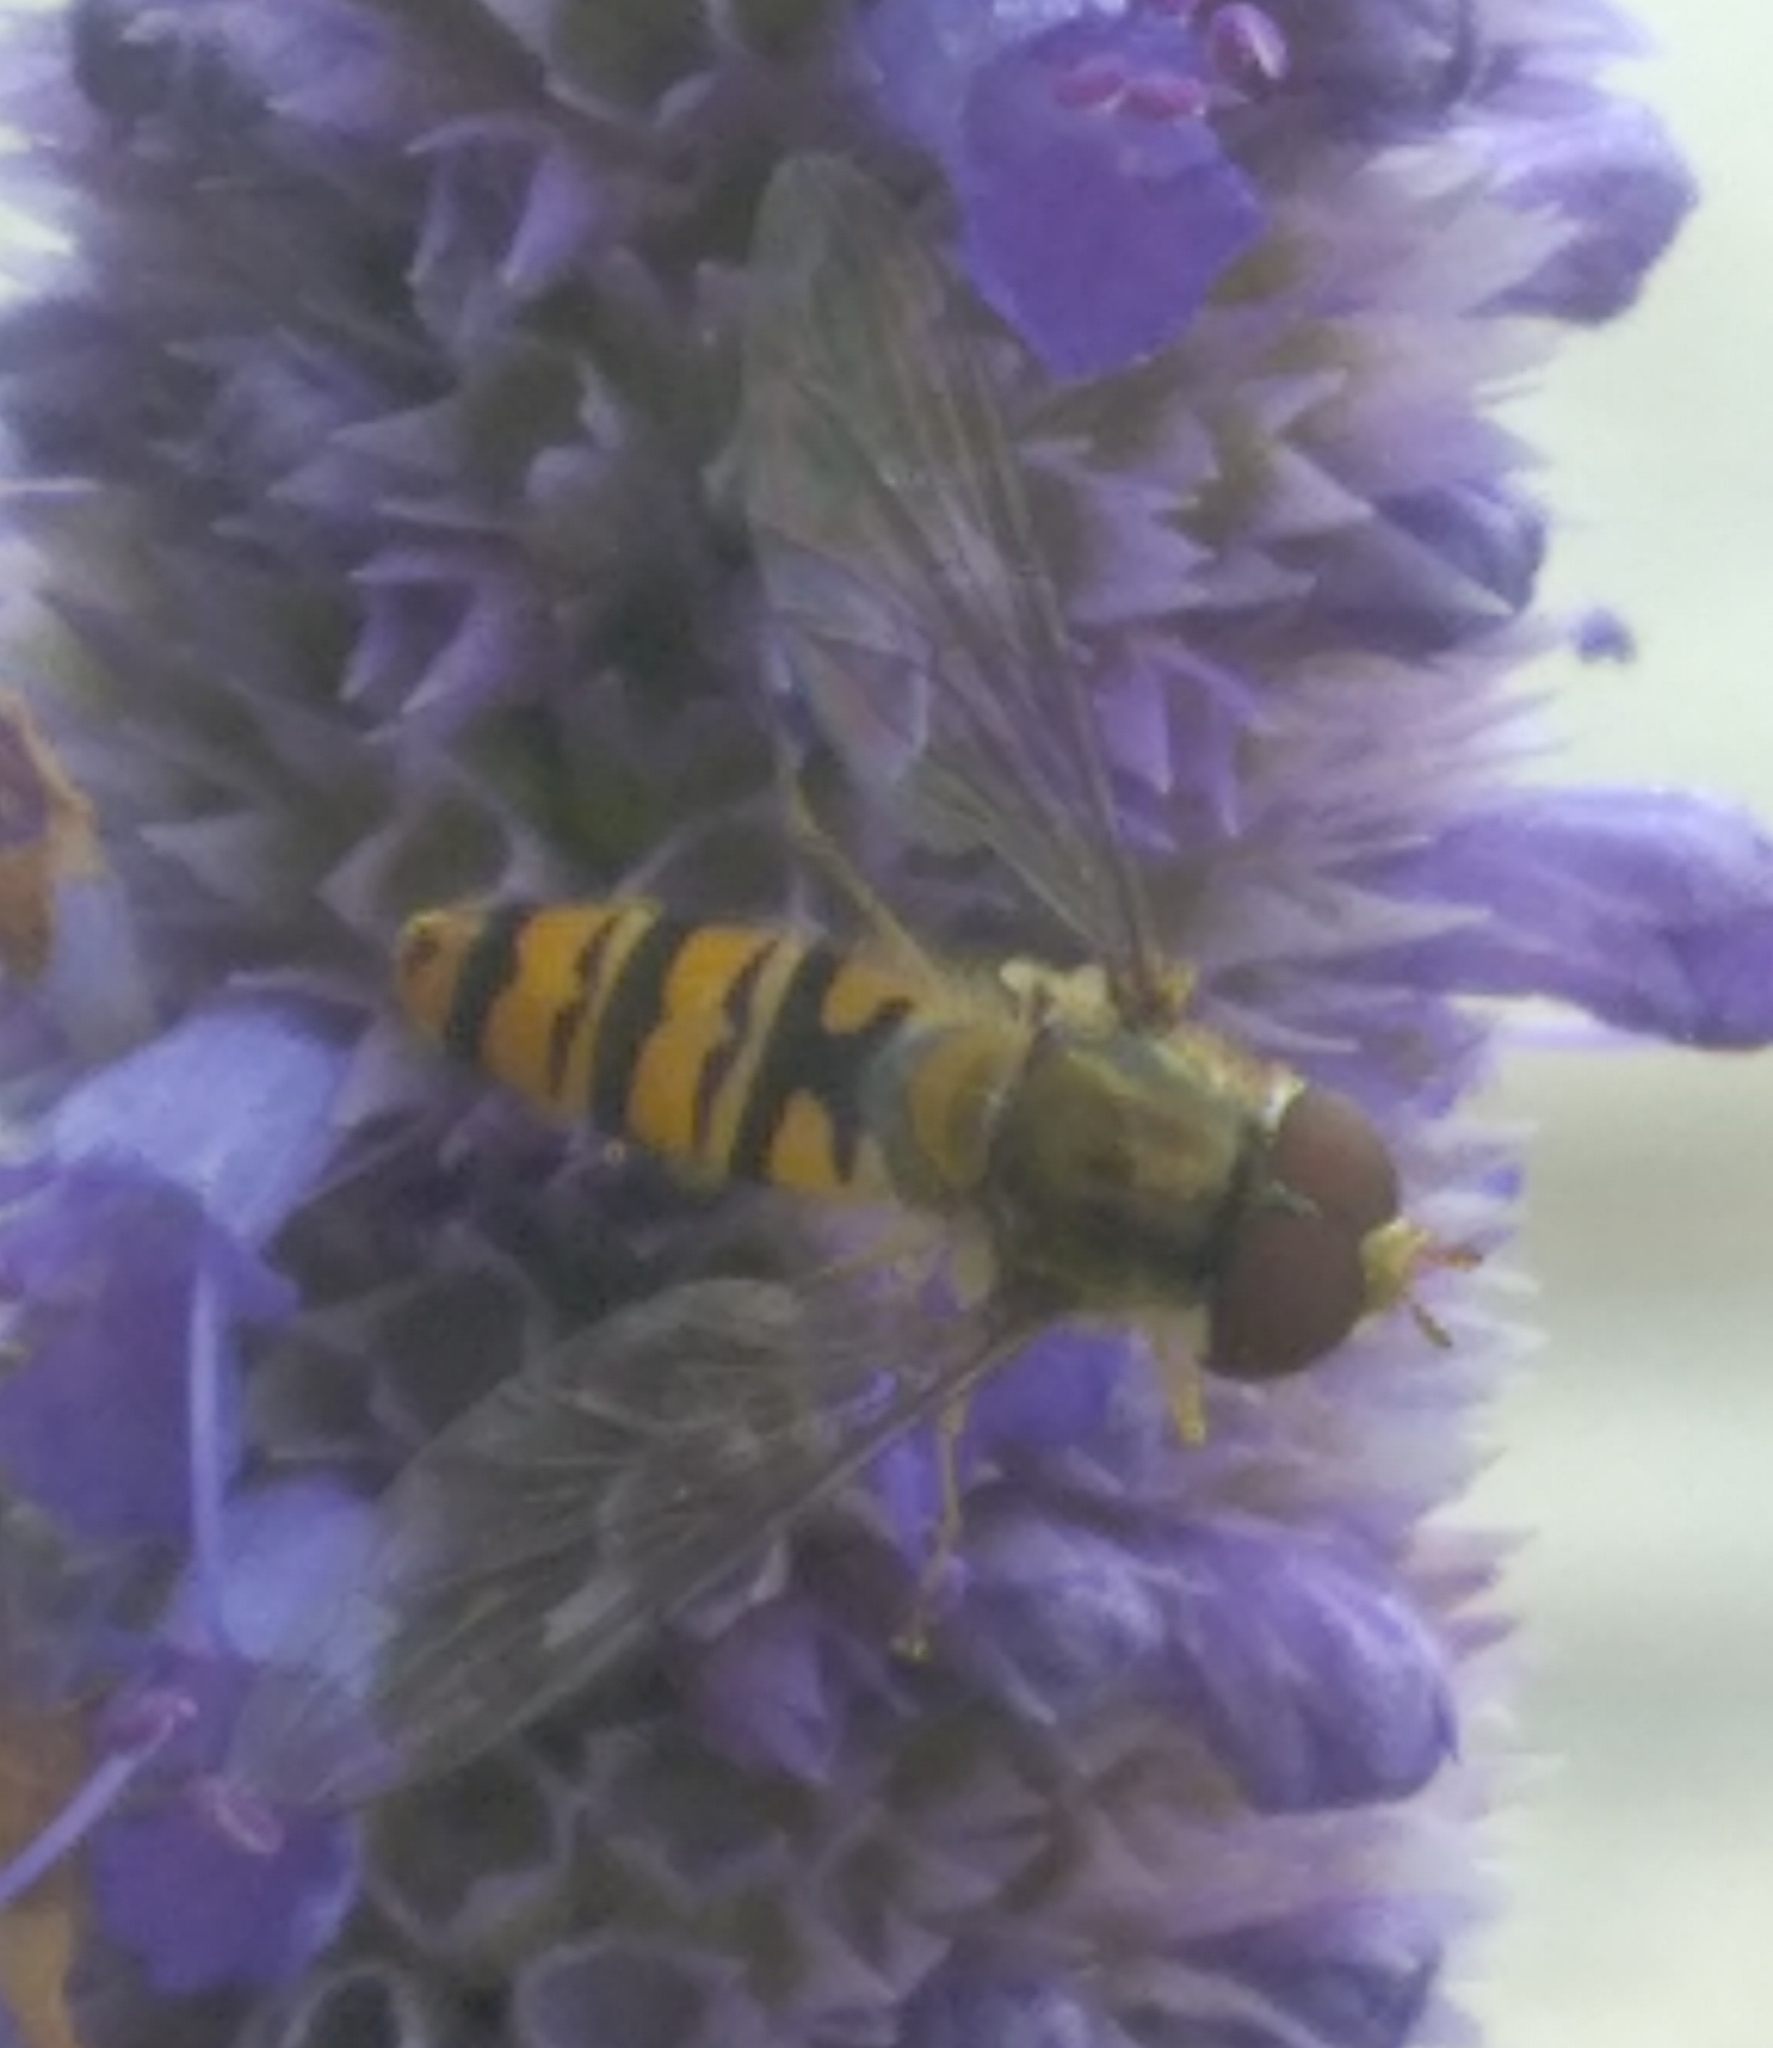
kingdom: Animalia
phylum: Arthropoda
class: Insecta
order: Diptera
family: Syrphidae
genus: Episyrphus
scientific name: Episyrphus balteatus
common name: Marmalade hoverfly
